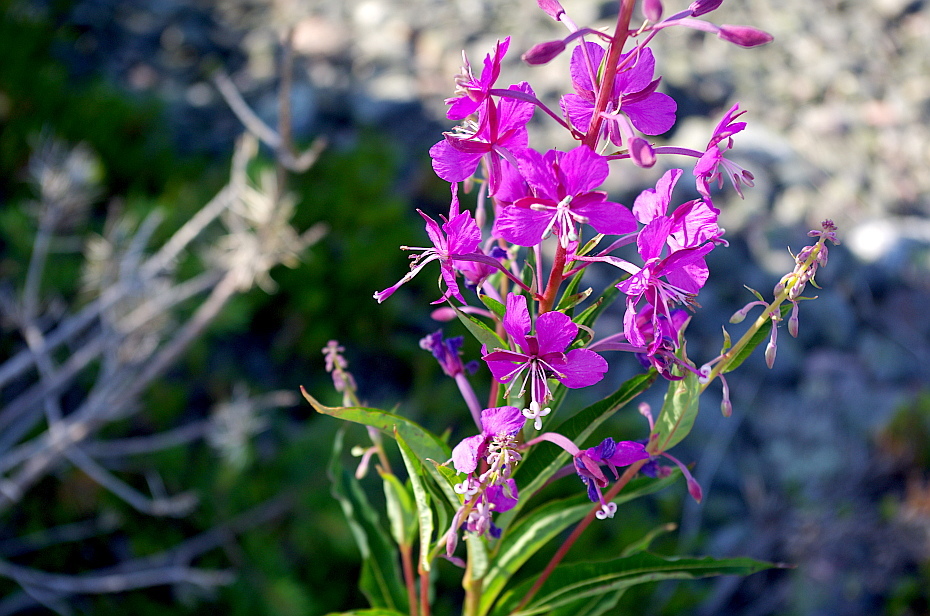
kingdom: Plantae
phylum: Tracheophyta
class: Magnoliopsida
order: Myrtales
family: Onagraceae
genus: Chamaenerion
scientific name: Chamaenerion angustifolium
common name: Fireweed
